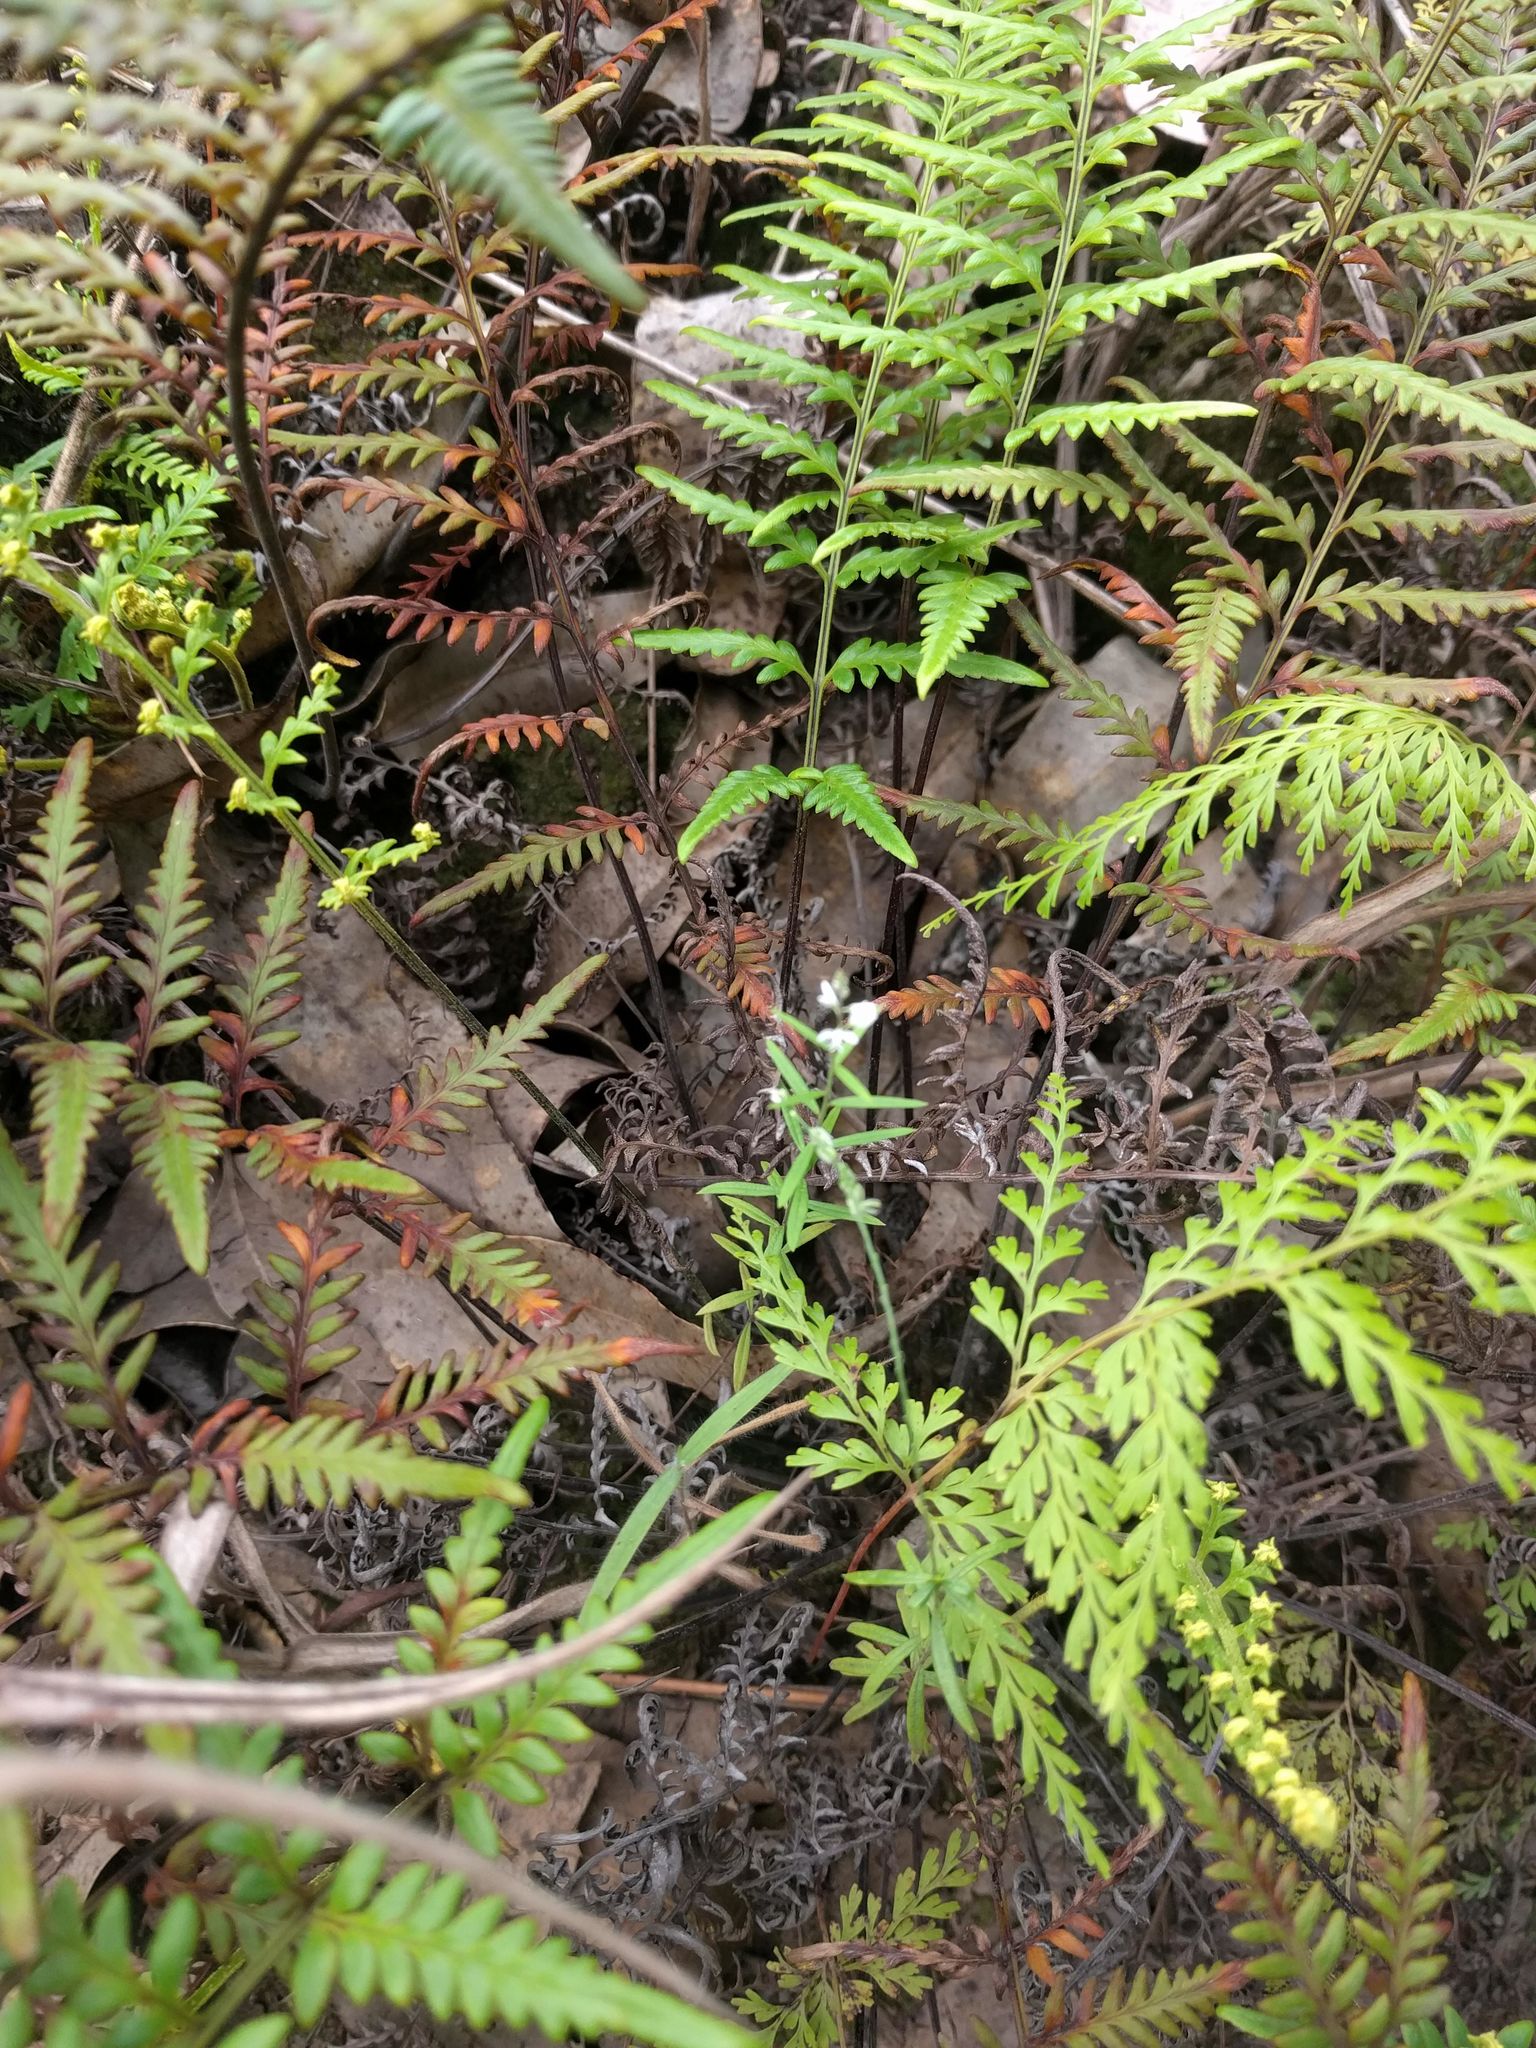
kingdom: Plantae
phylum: Tracheophyta
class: Magnoliopsida
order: Fabales
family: Polygalaceae
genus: Polygala
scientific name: Polygala paniculata
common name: Orosne
